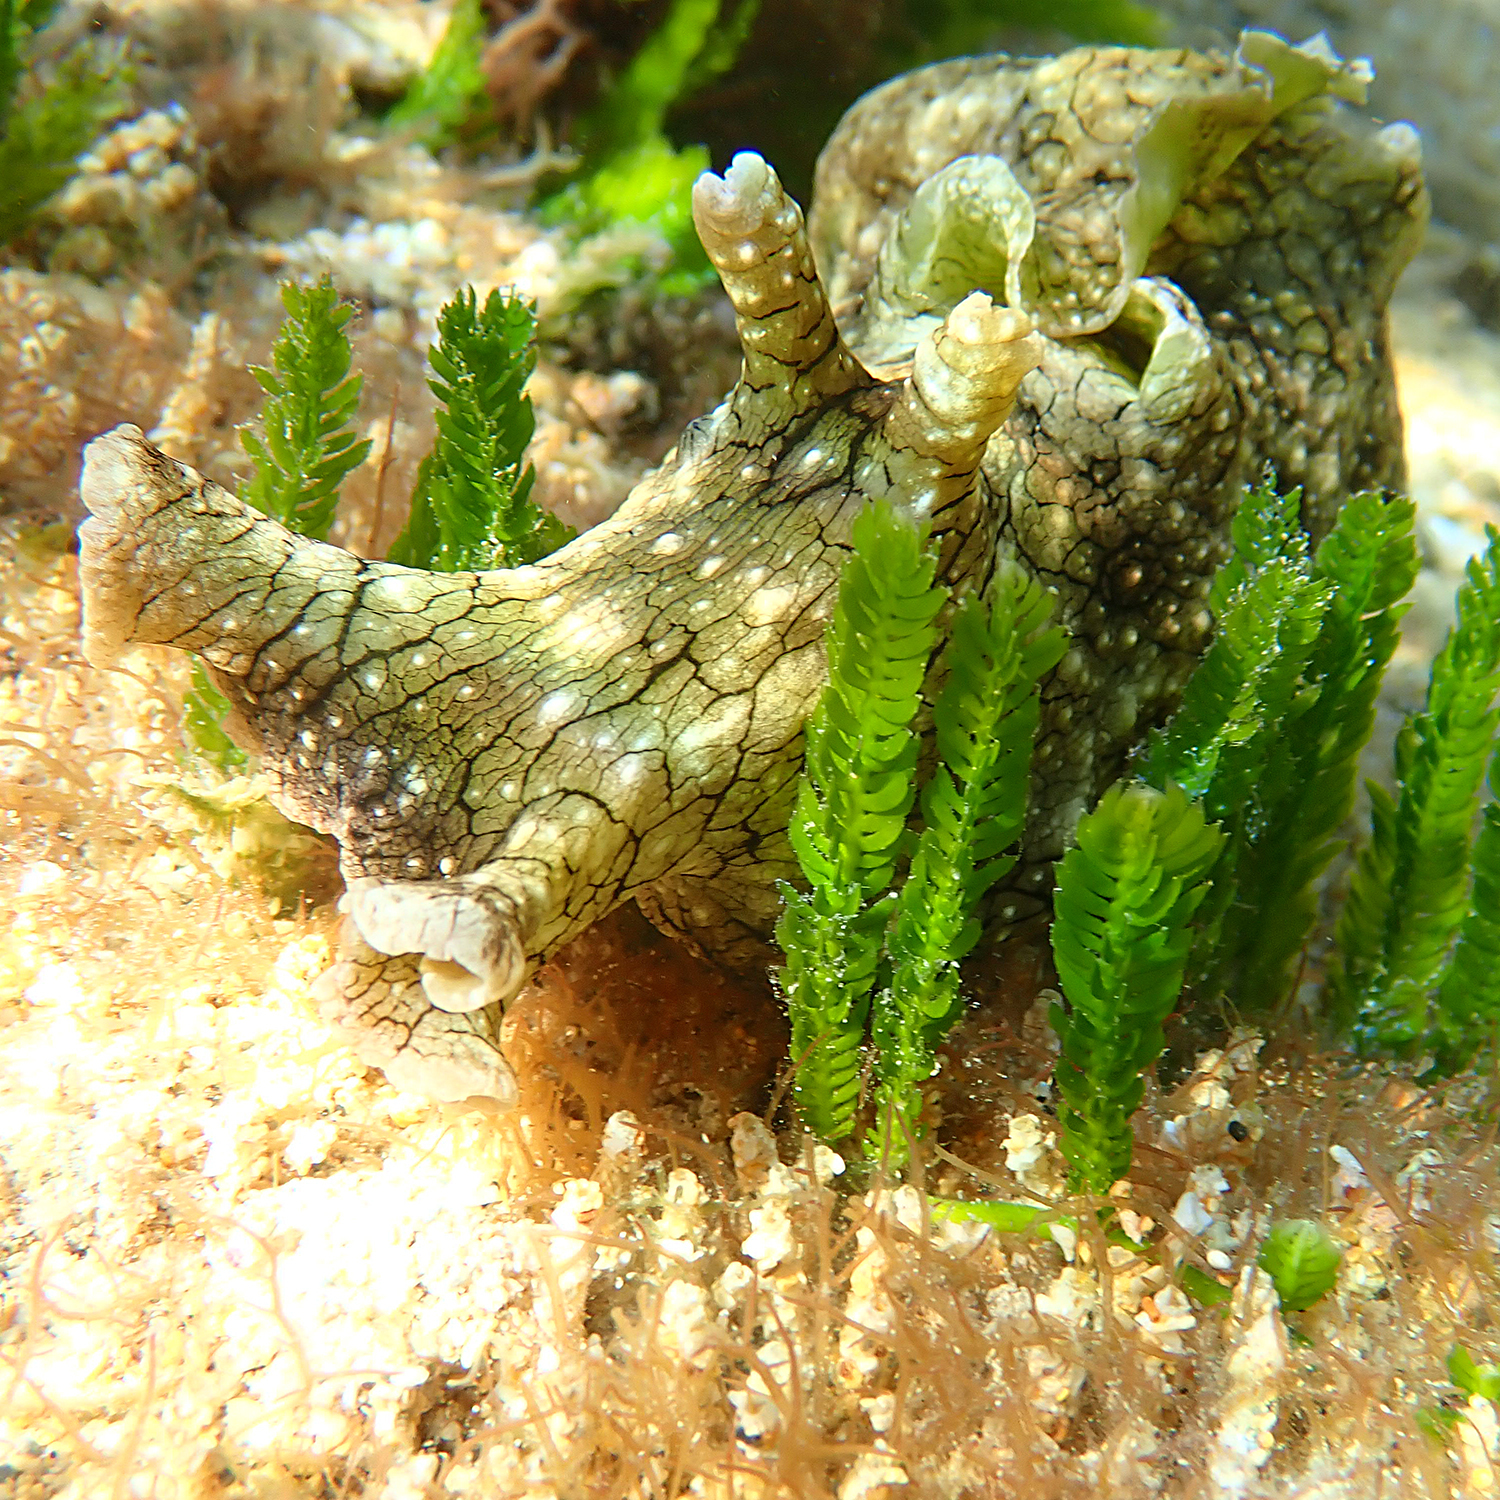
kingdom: Animalia
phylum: Mollusca
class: Gastropoda
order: Aplysiida
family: Aplysiidae
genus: Aplysia
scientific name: Aplysia argus
